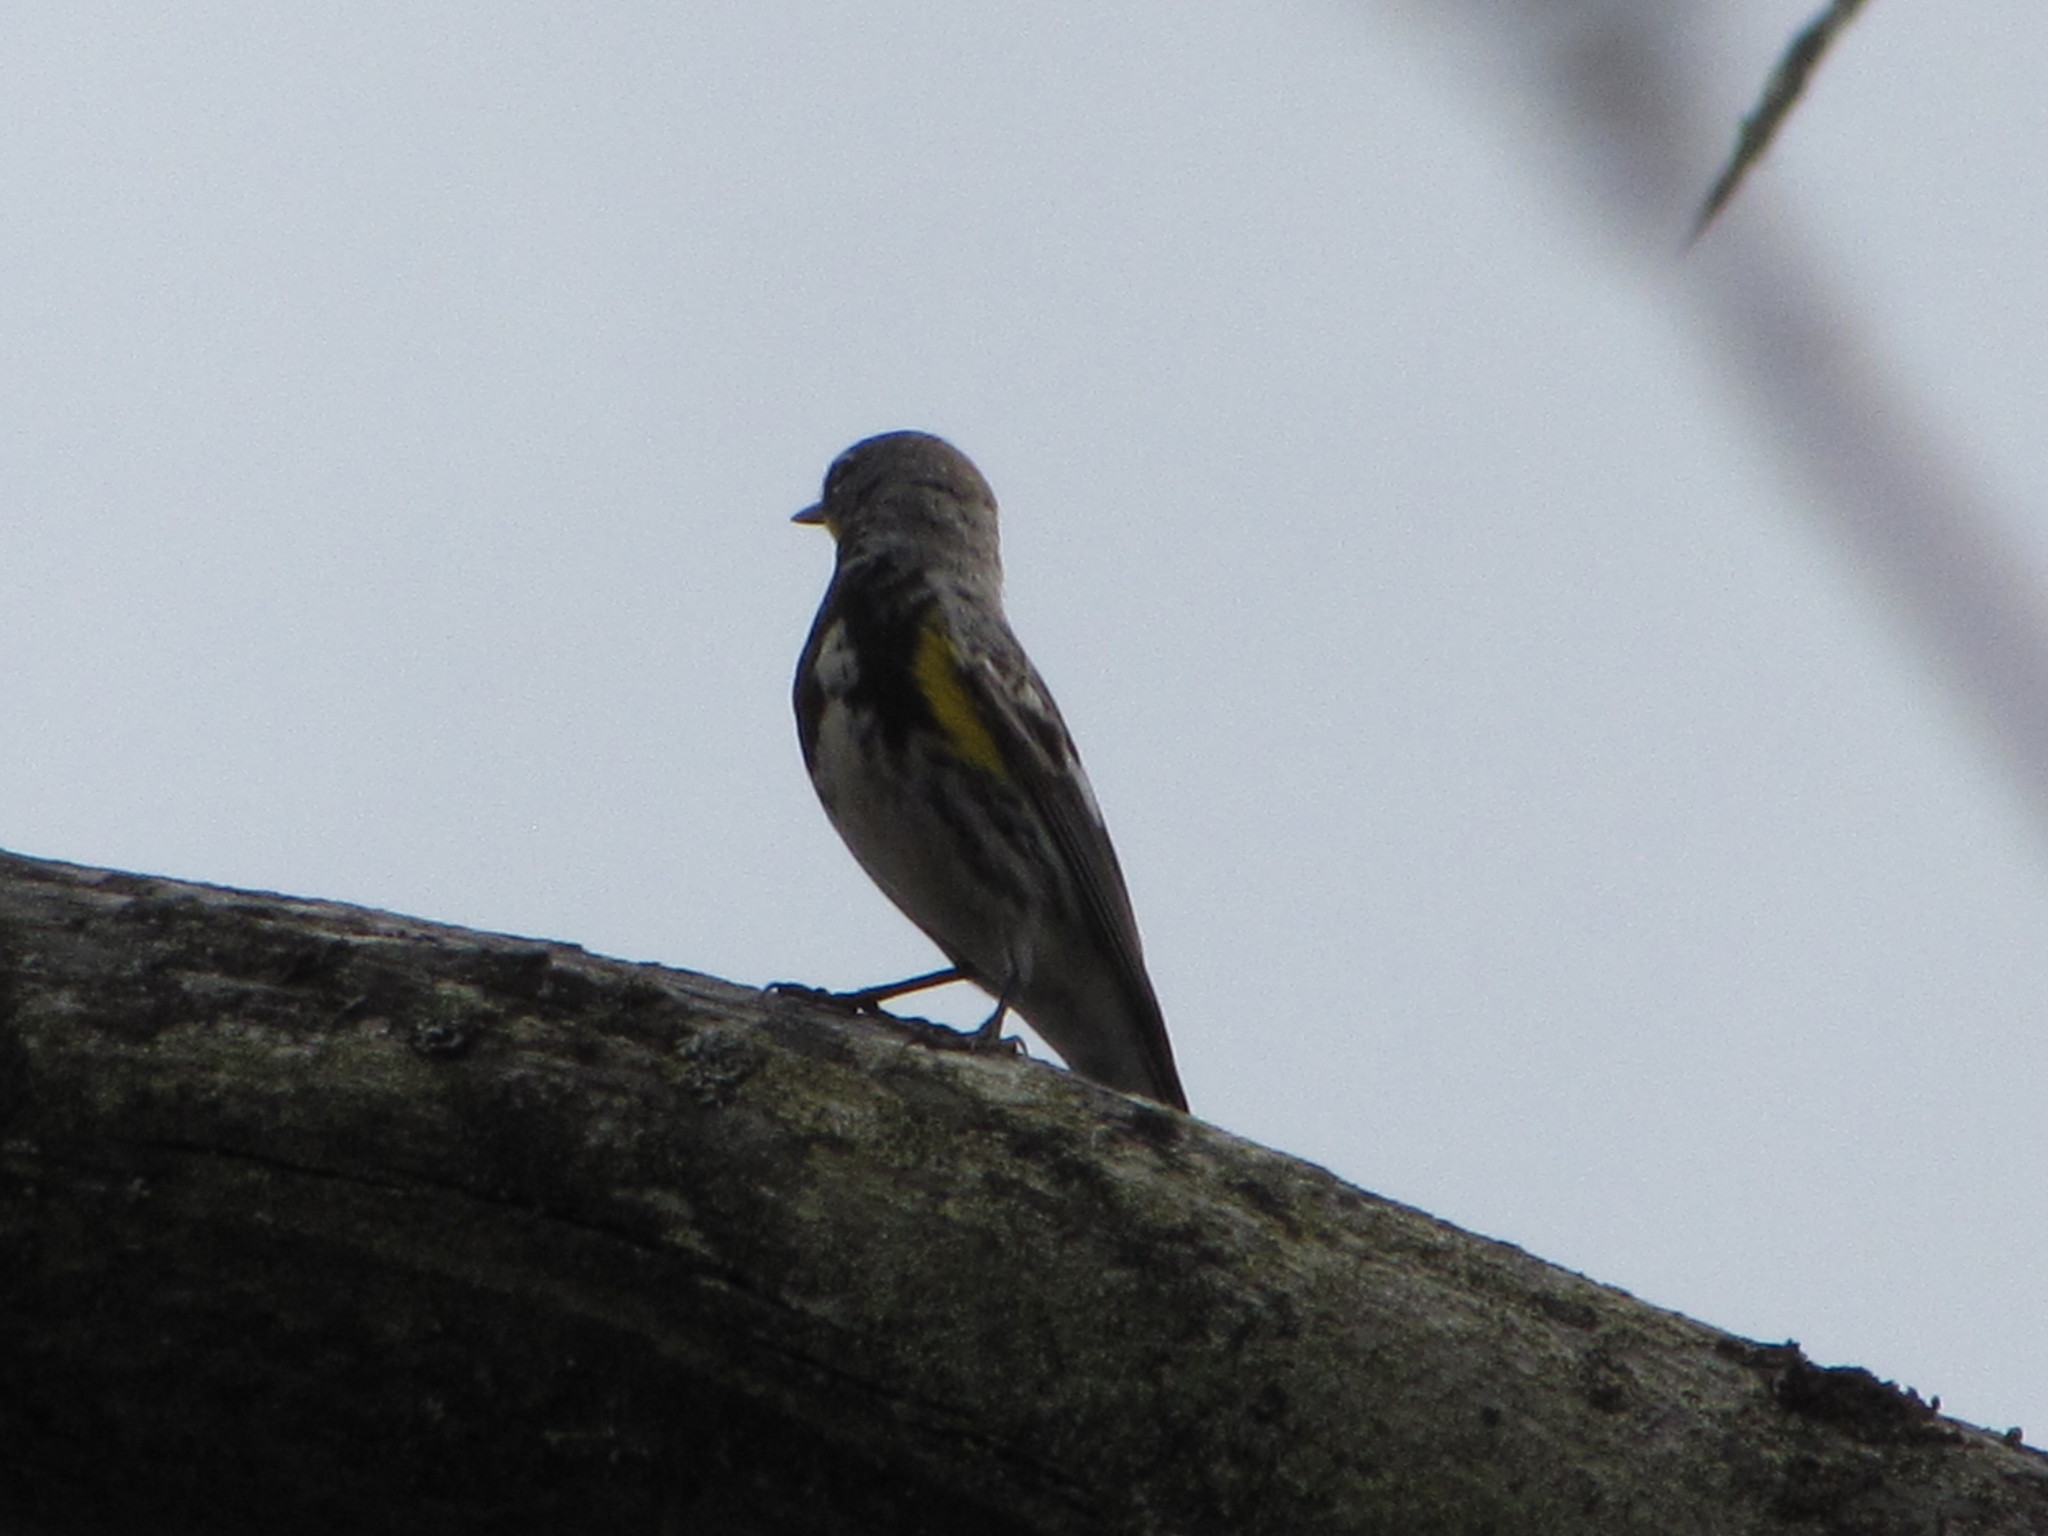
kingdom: Animalia
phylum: Chordata
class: Aves
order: Passeriformes
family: Parulidae
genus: Setophaga
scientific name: Setophaga coronata
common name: Myrtle warbler
